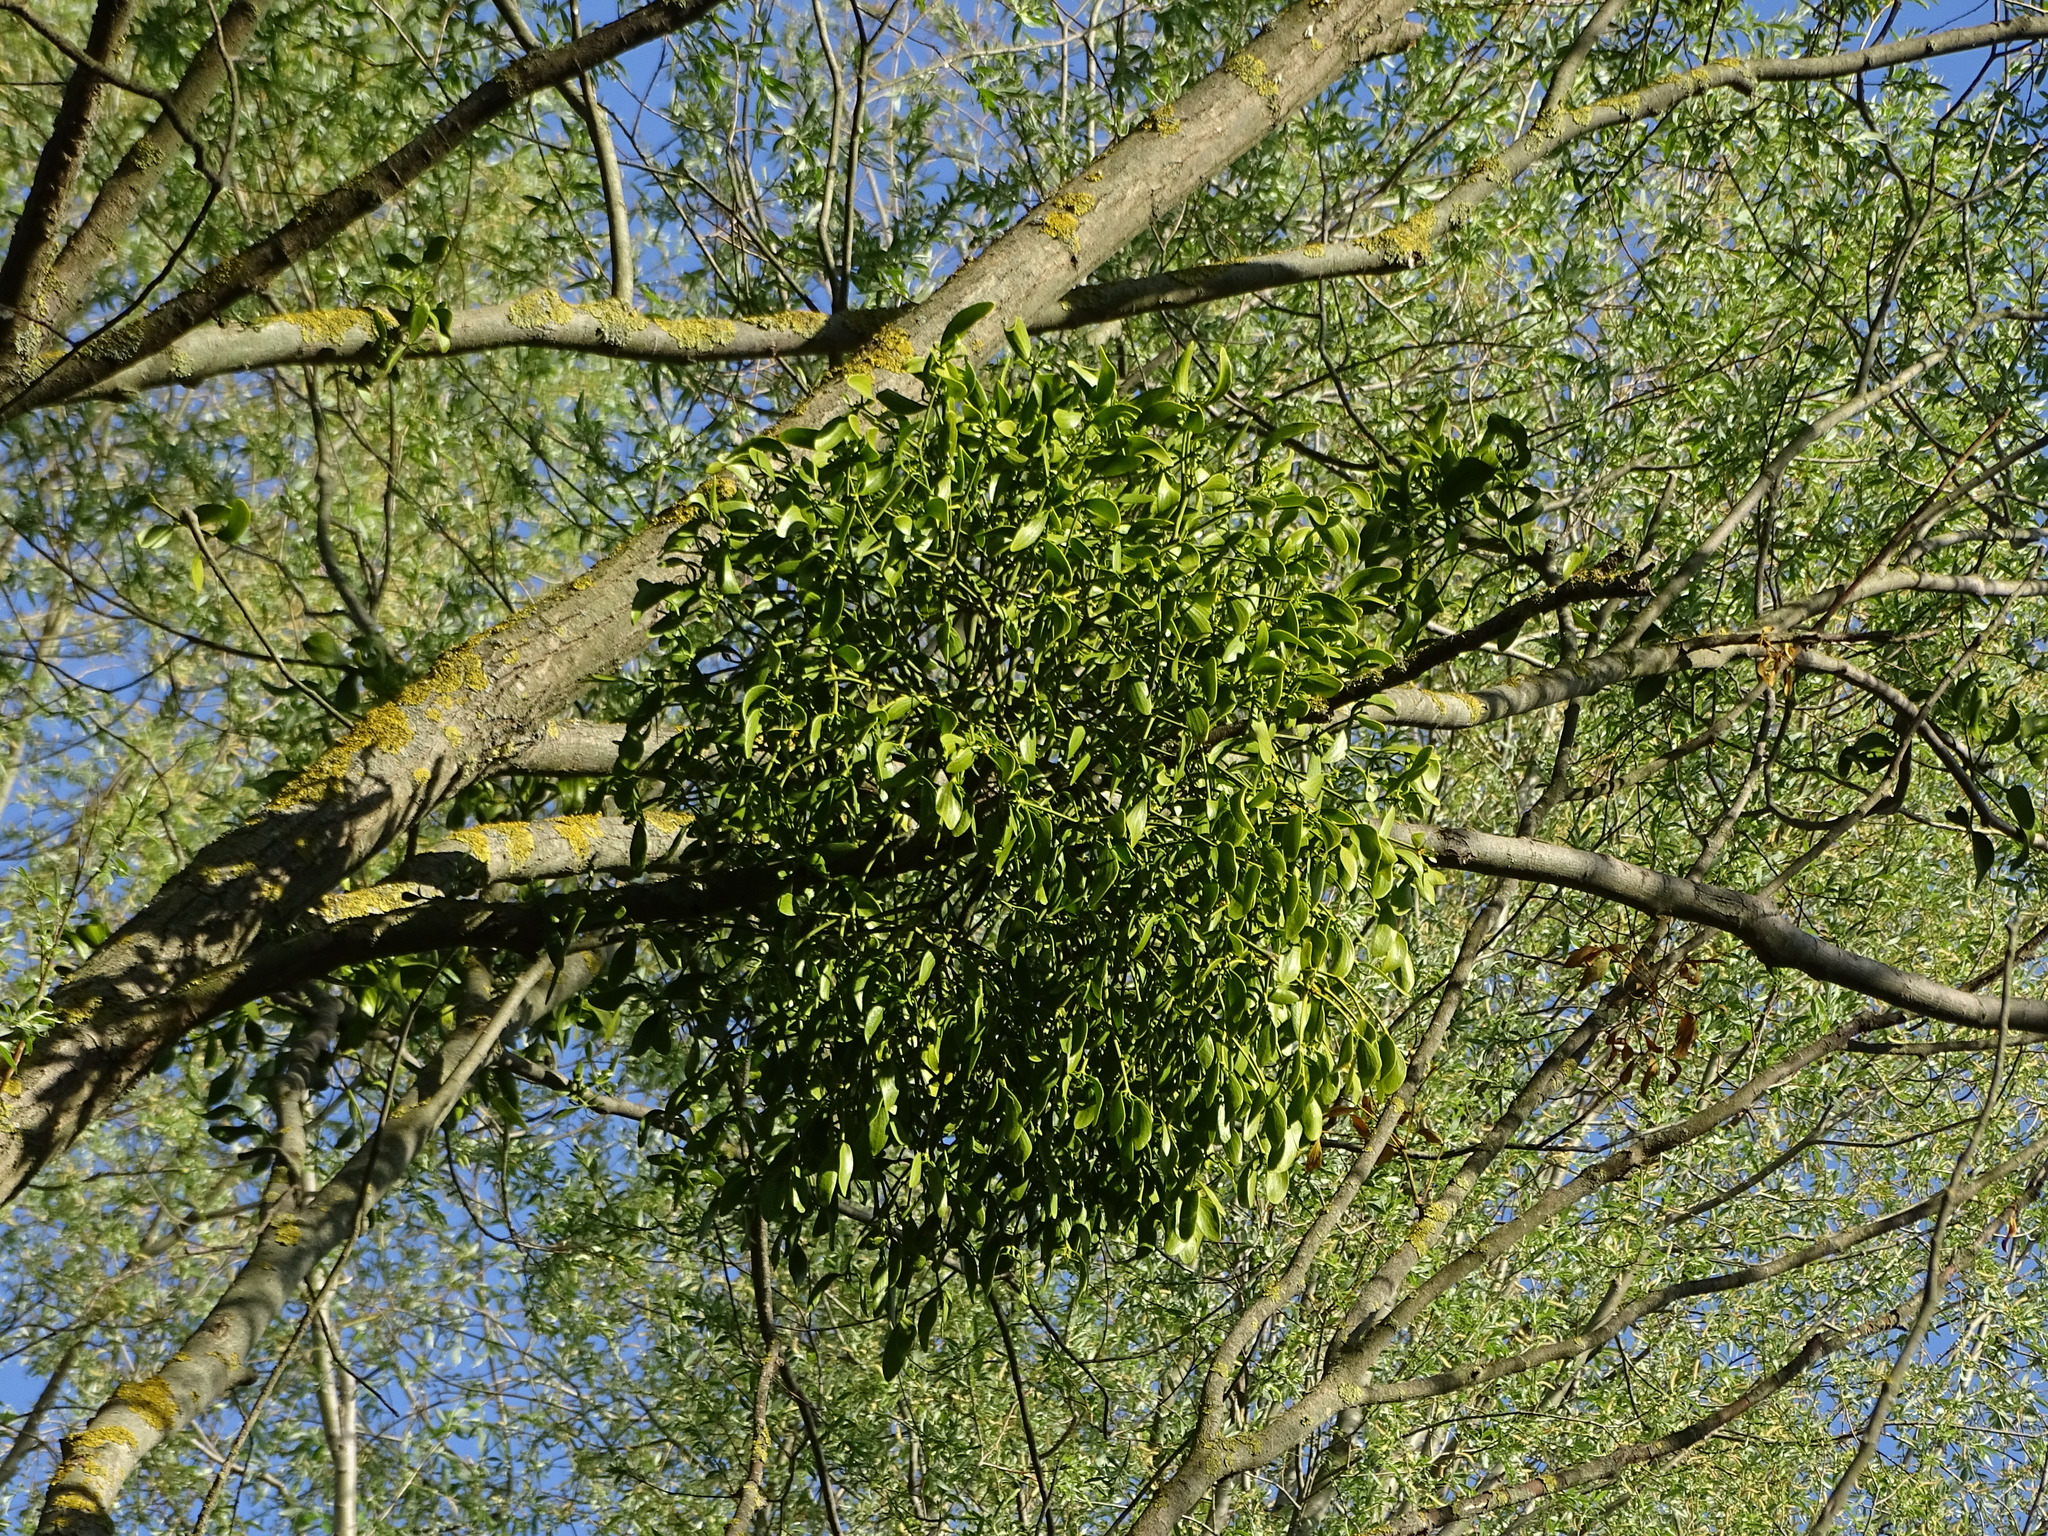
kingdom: Plantae
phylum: Tracheophyta
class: Magnoliopsida
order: Santalales
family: Viscaceae
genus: Viscum
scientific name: Viscum album
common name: Mistletoe
